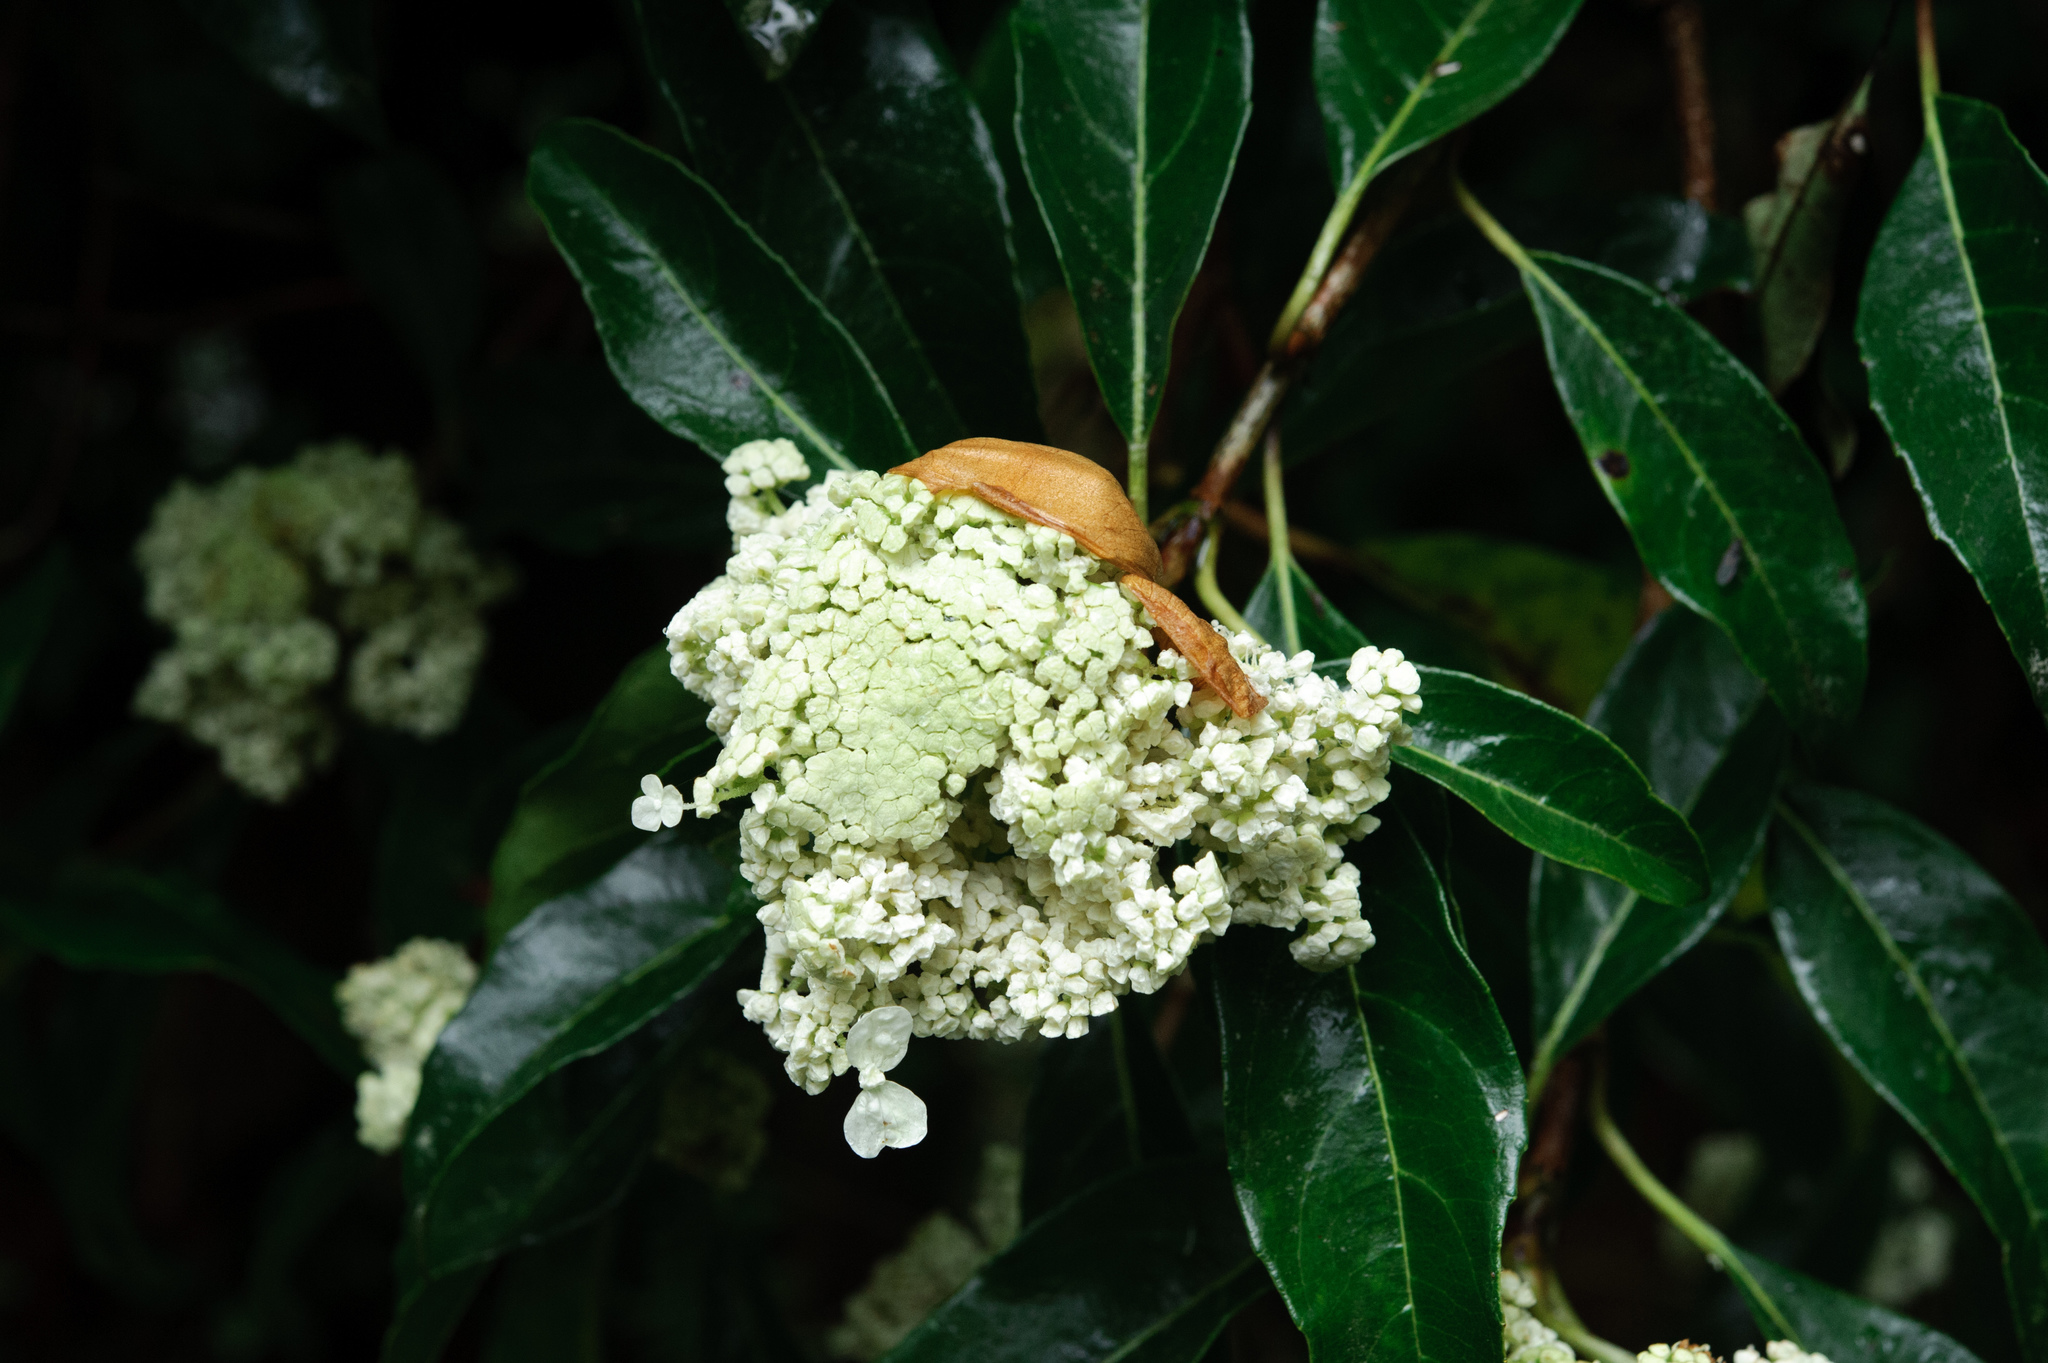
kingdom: Plantae
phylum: Tracheophyta
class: Magnoliopsida
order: Cornales
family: Hydrangeaceae
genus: Hydrangea
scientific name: Hydrangea integrifolia
